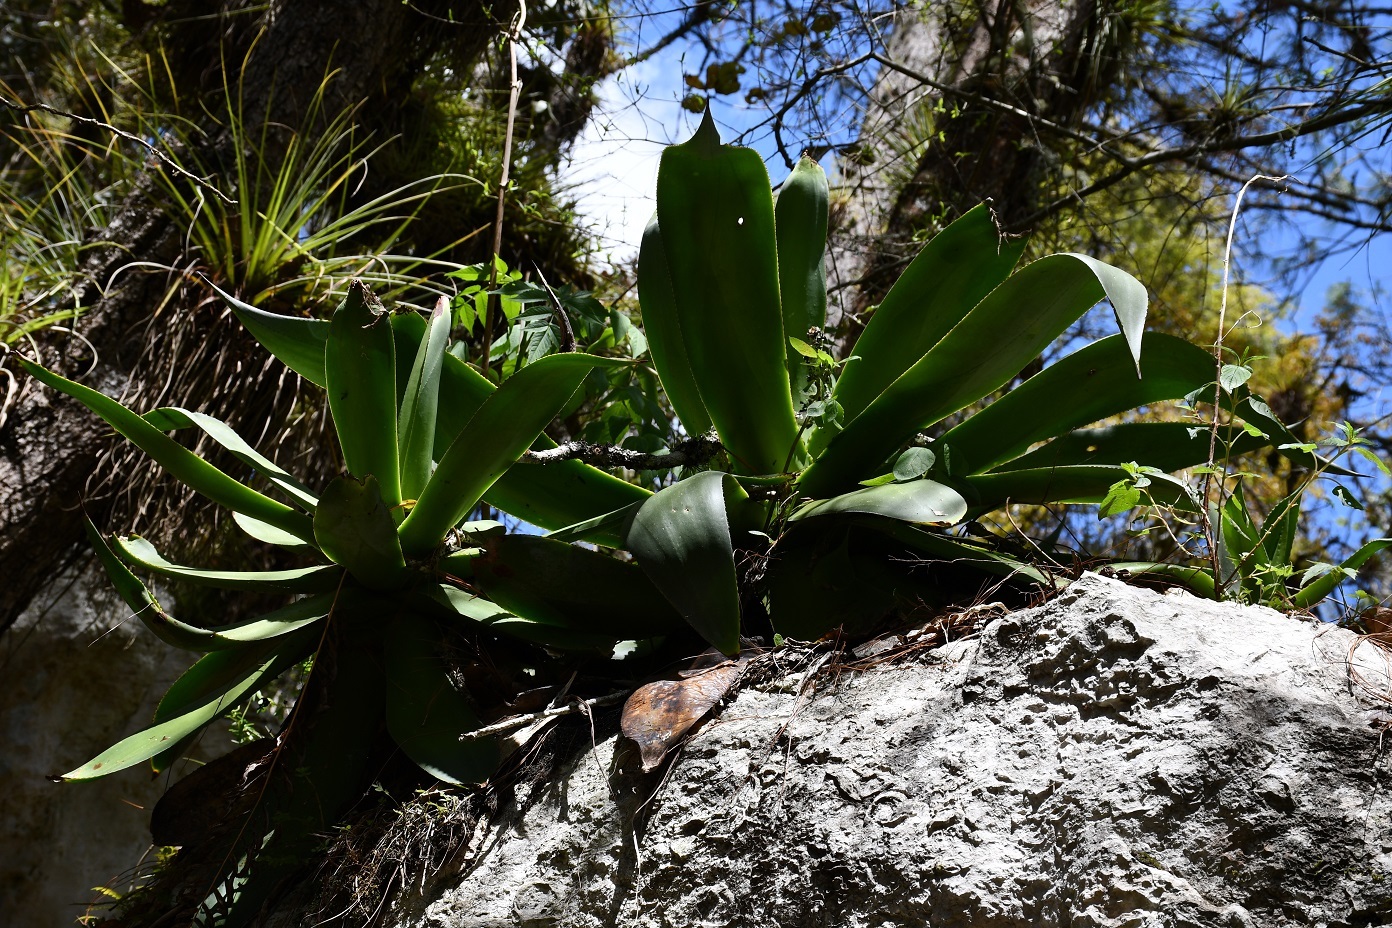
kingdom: Plantae
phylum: Tracheophyta
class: Liliopsida
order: Asparagales
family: Asparagaceae
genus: Agave
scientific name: Agave warelliana
